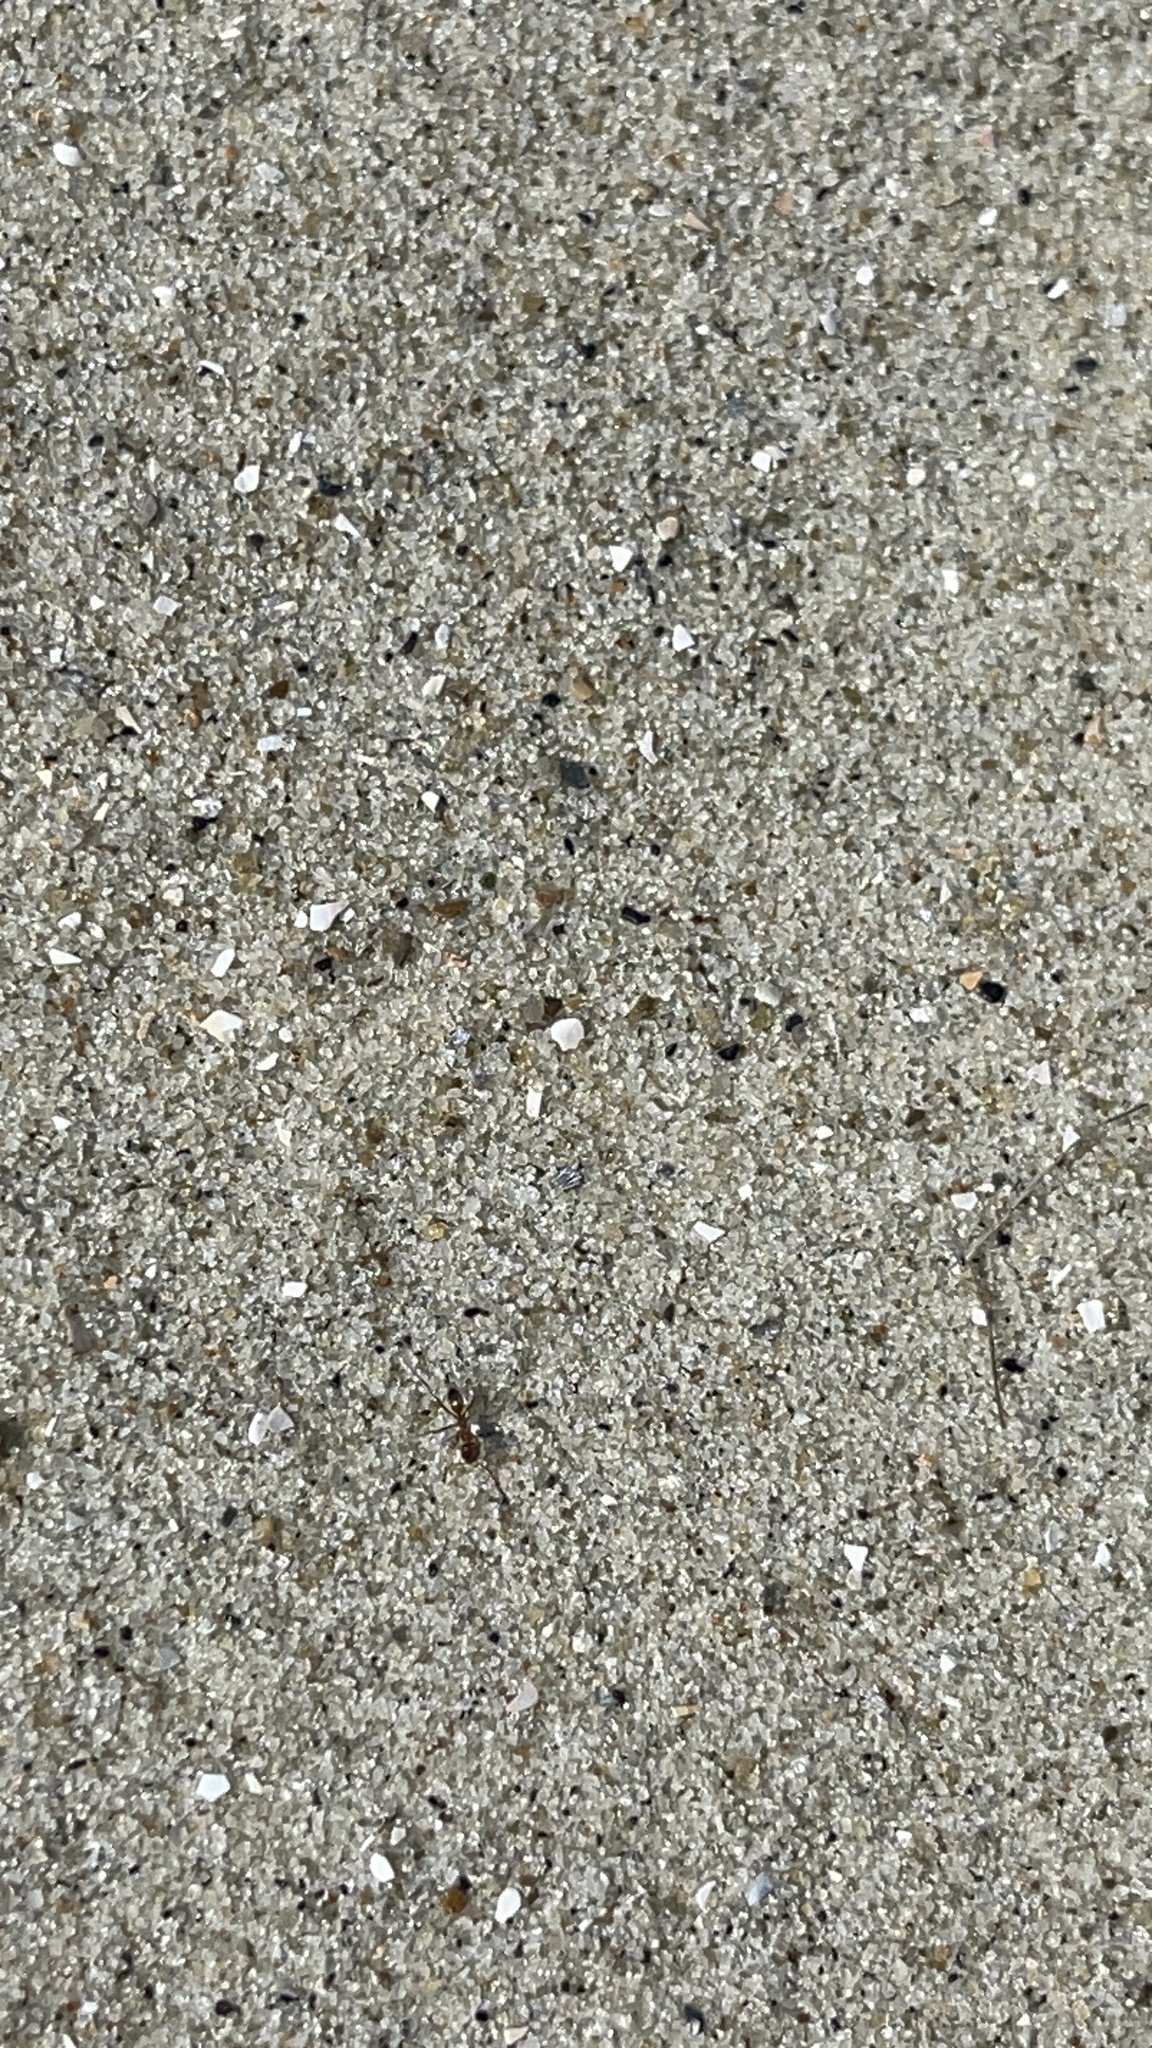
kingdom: Animalia
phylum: Arthropoda
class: Insecta
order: Hymenoptera
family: Formicidae
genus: Dorymyrmex
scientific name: Dorymyrmex bureni
